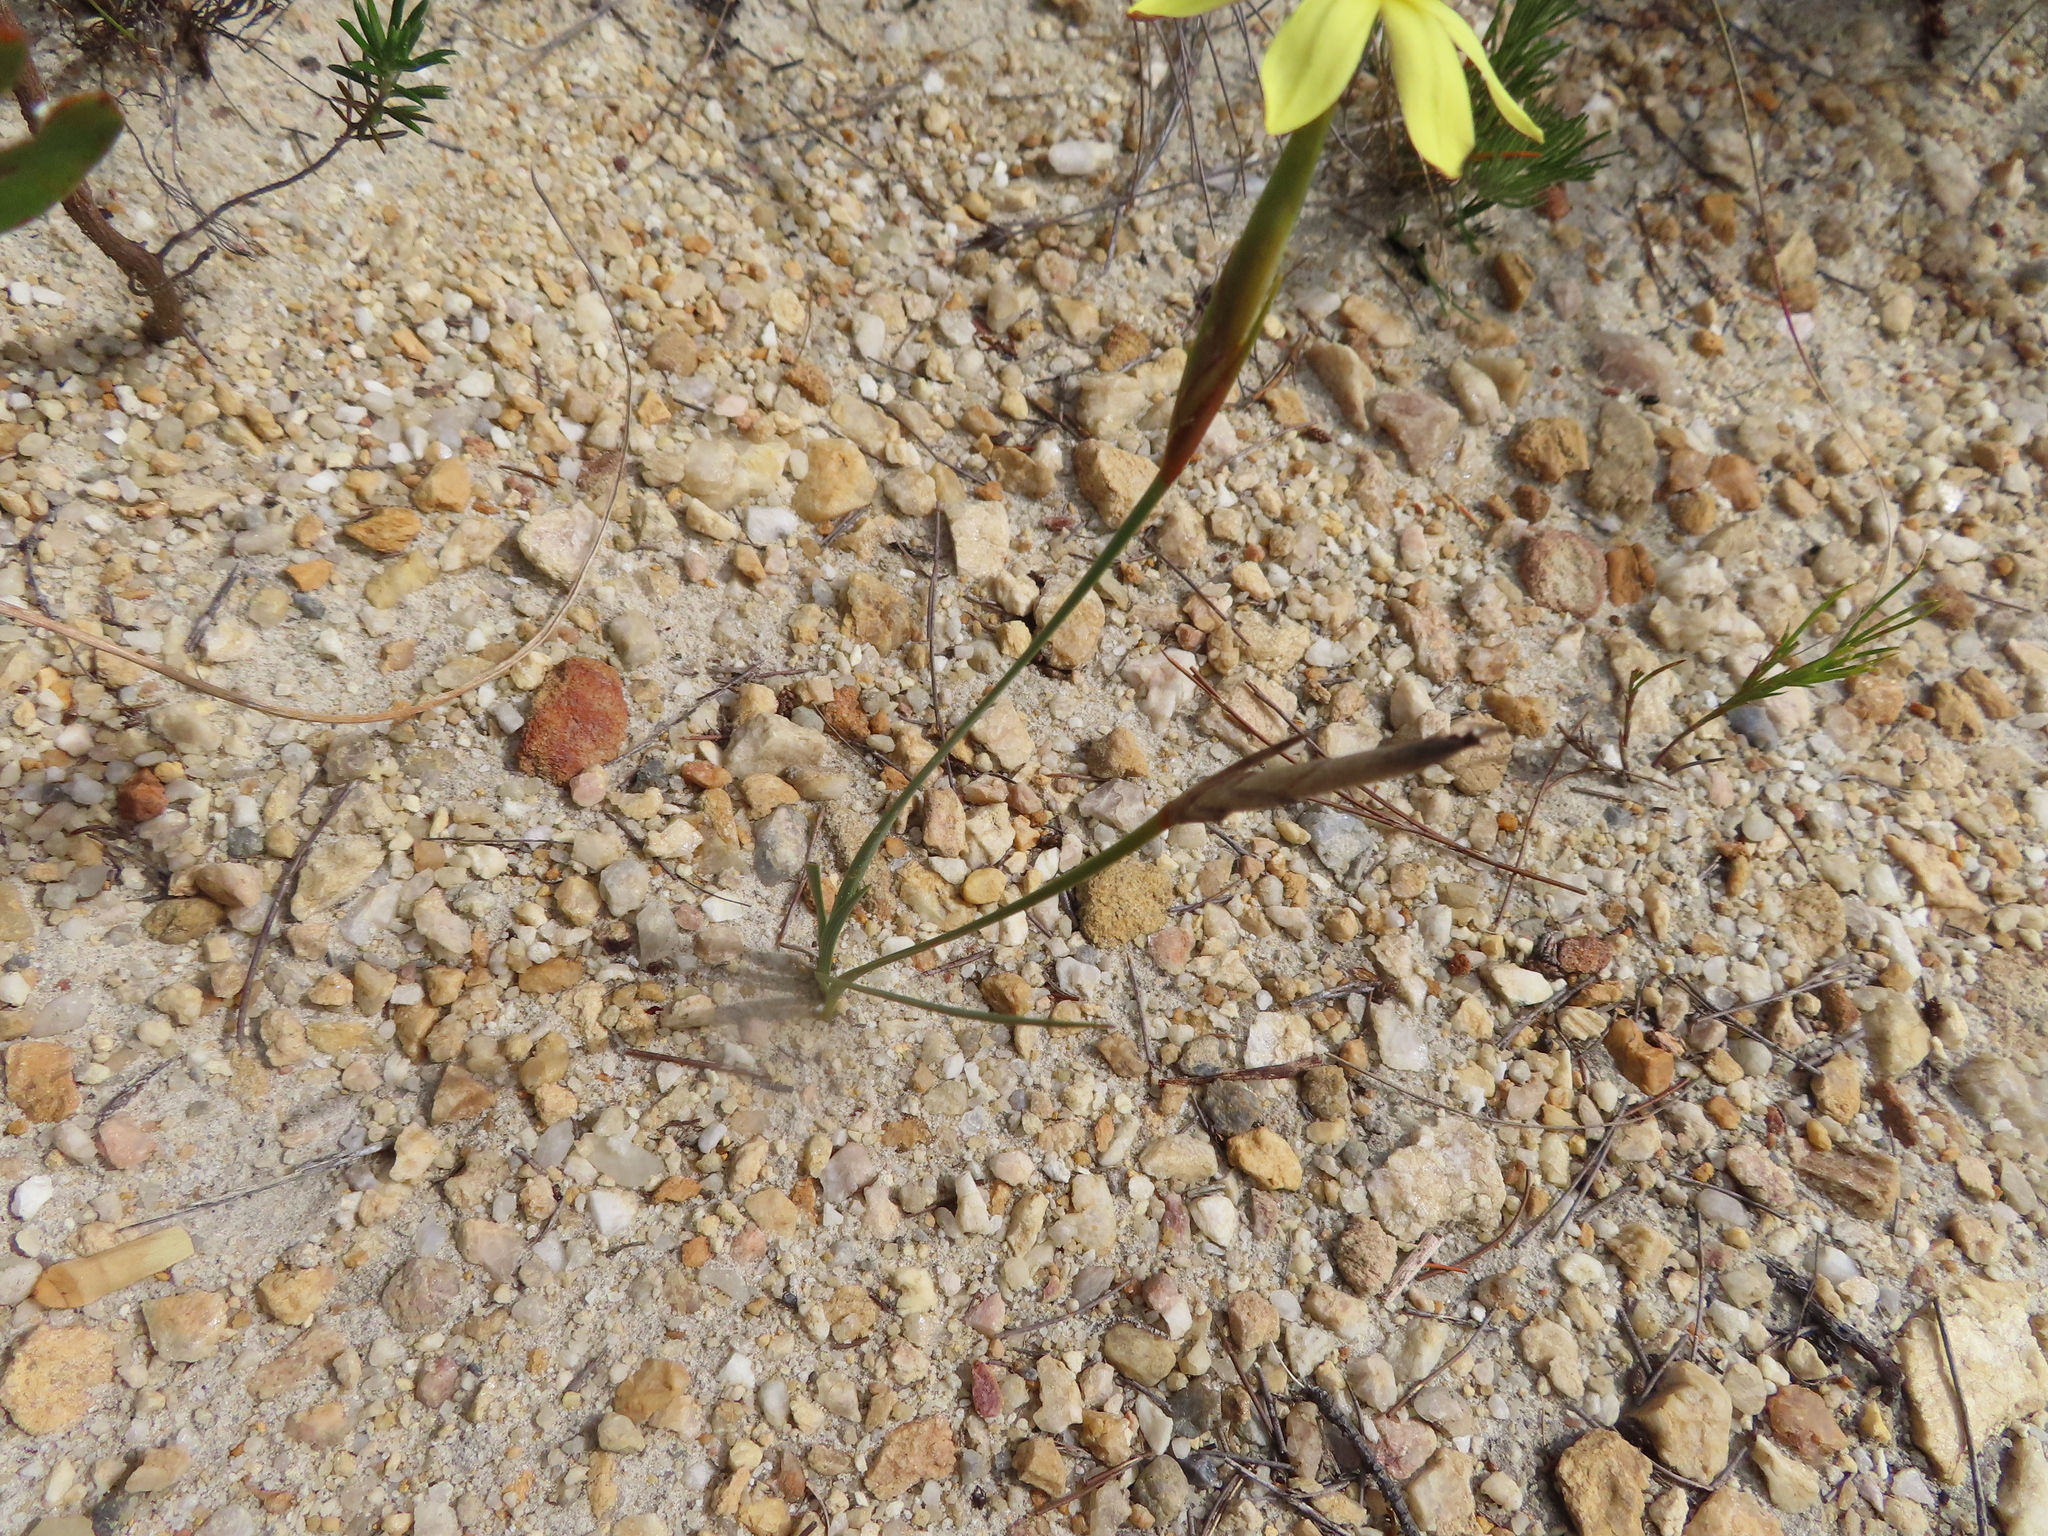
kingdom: Plantae
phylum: Tracheophyta
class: Liliopsida
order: Asparagales
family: Iridaceae
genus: Bobartia
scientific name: Bobartia filiformis
